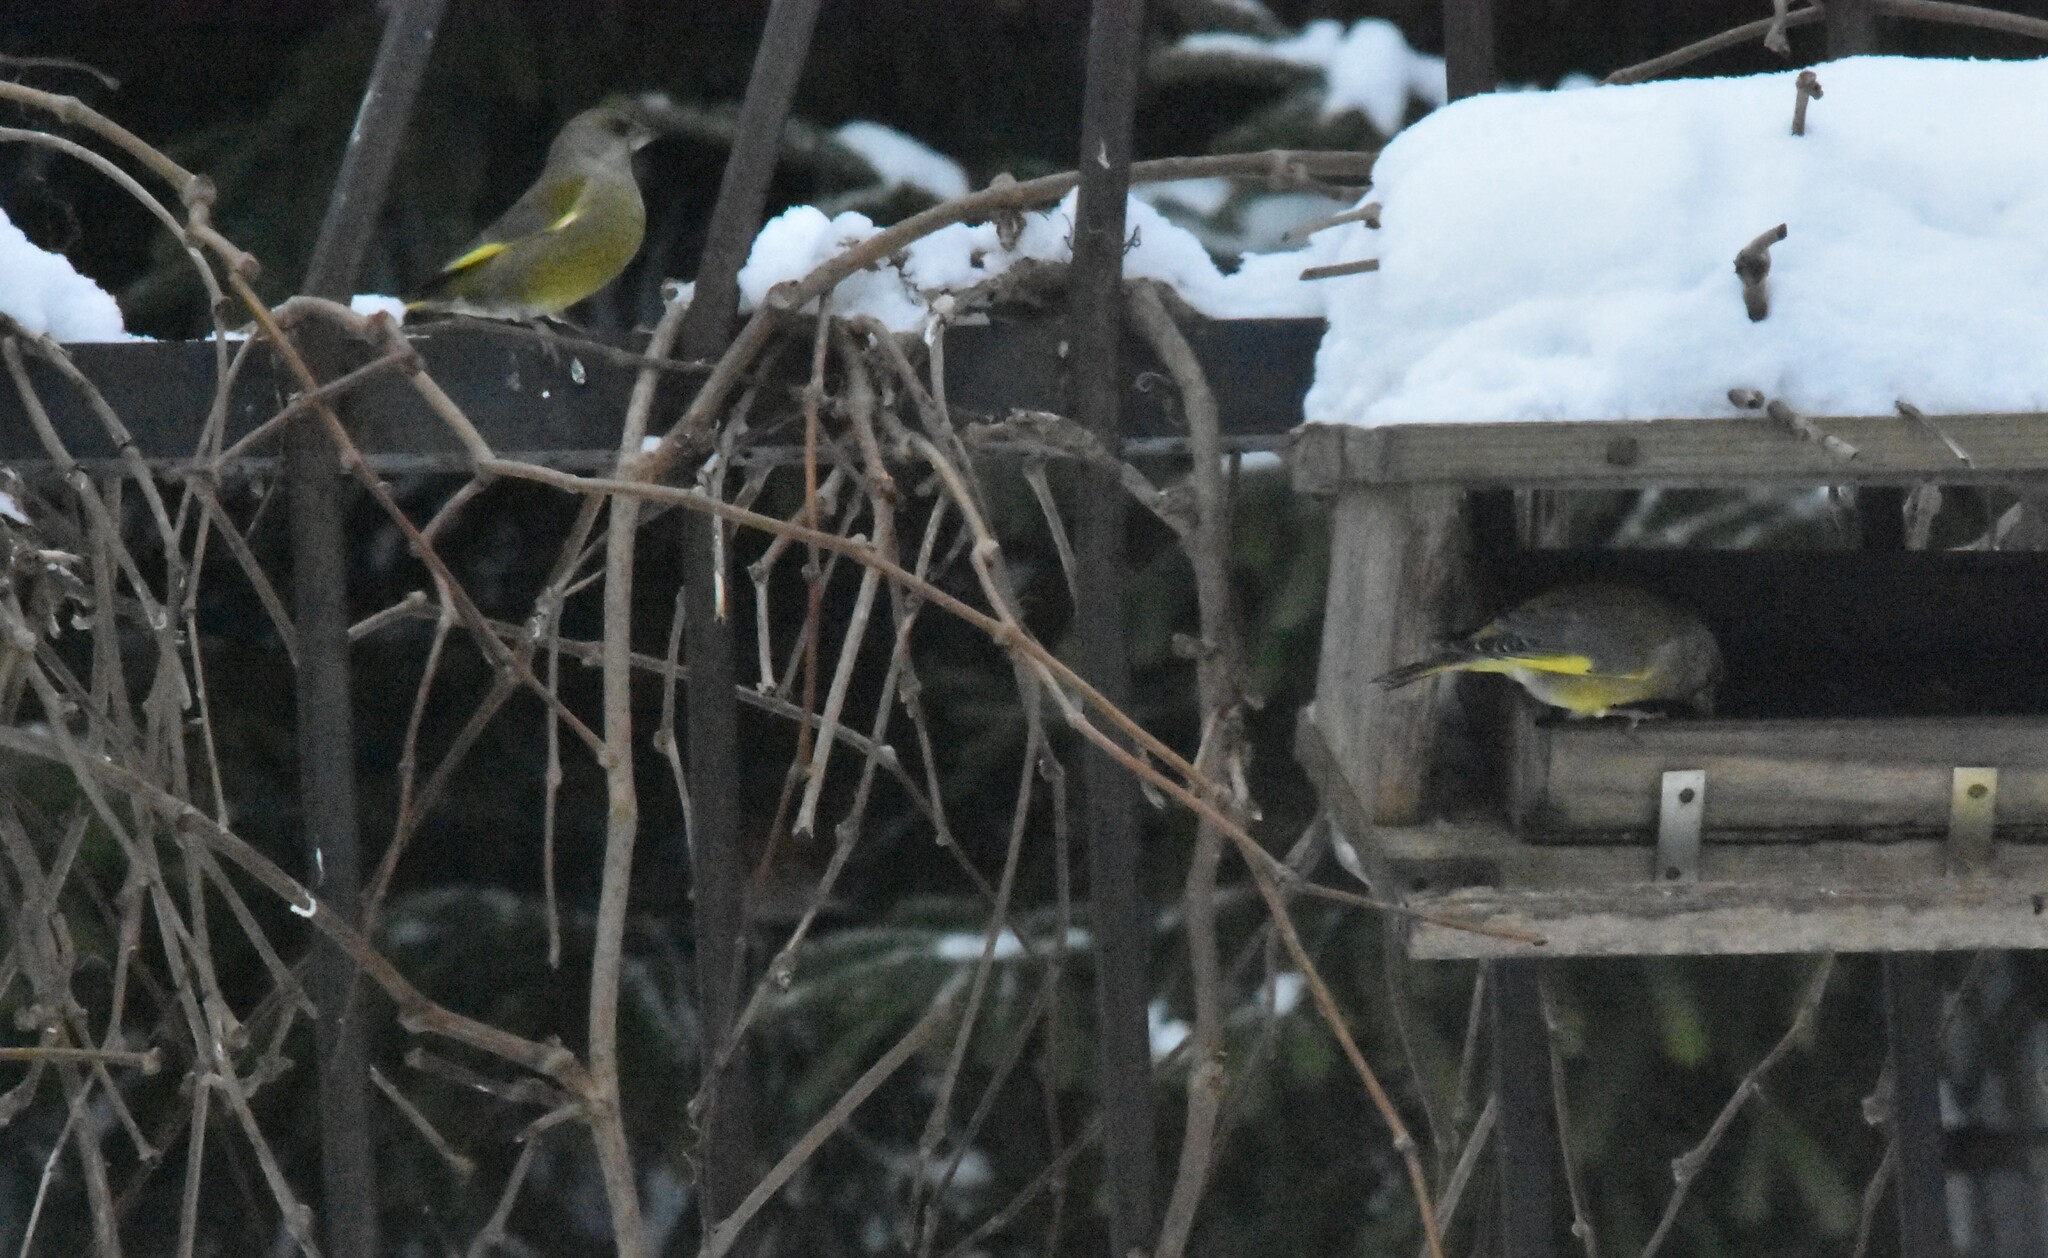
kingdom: Plantae
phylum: Tracheophyta
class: Liliopsida
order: Poales
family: Poaceae
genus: Chloris
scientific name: Chloris chloris
